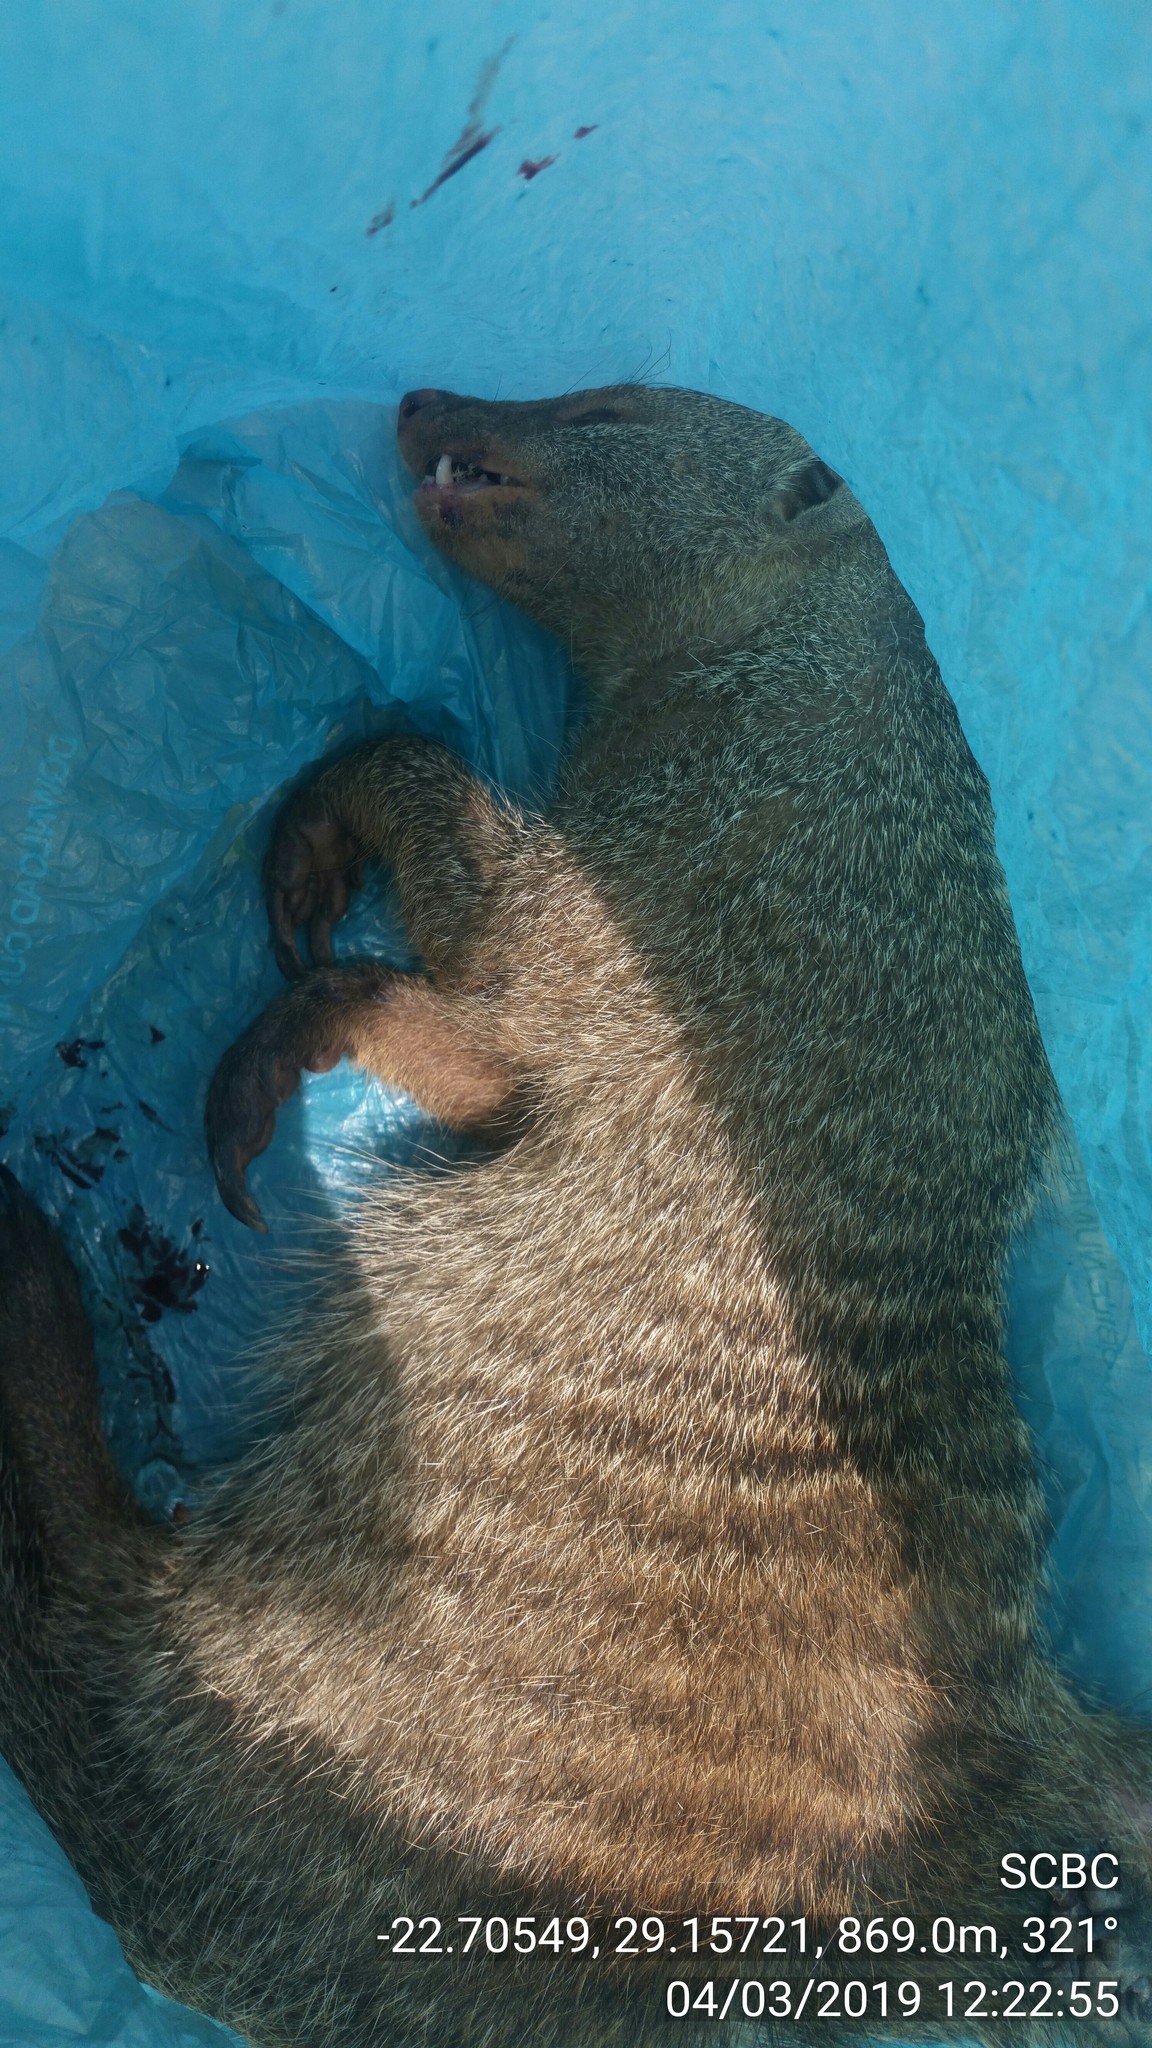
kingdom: Animalia
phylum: Chordata
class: Mammalia
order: Carnivora
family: Herpestidae
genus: Mungos
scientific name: Mungos mungo
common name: Banded mongoose
